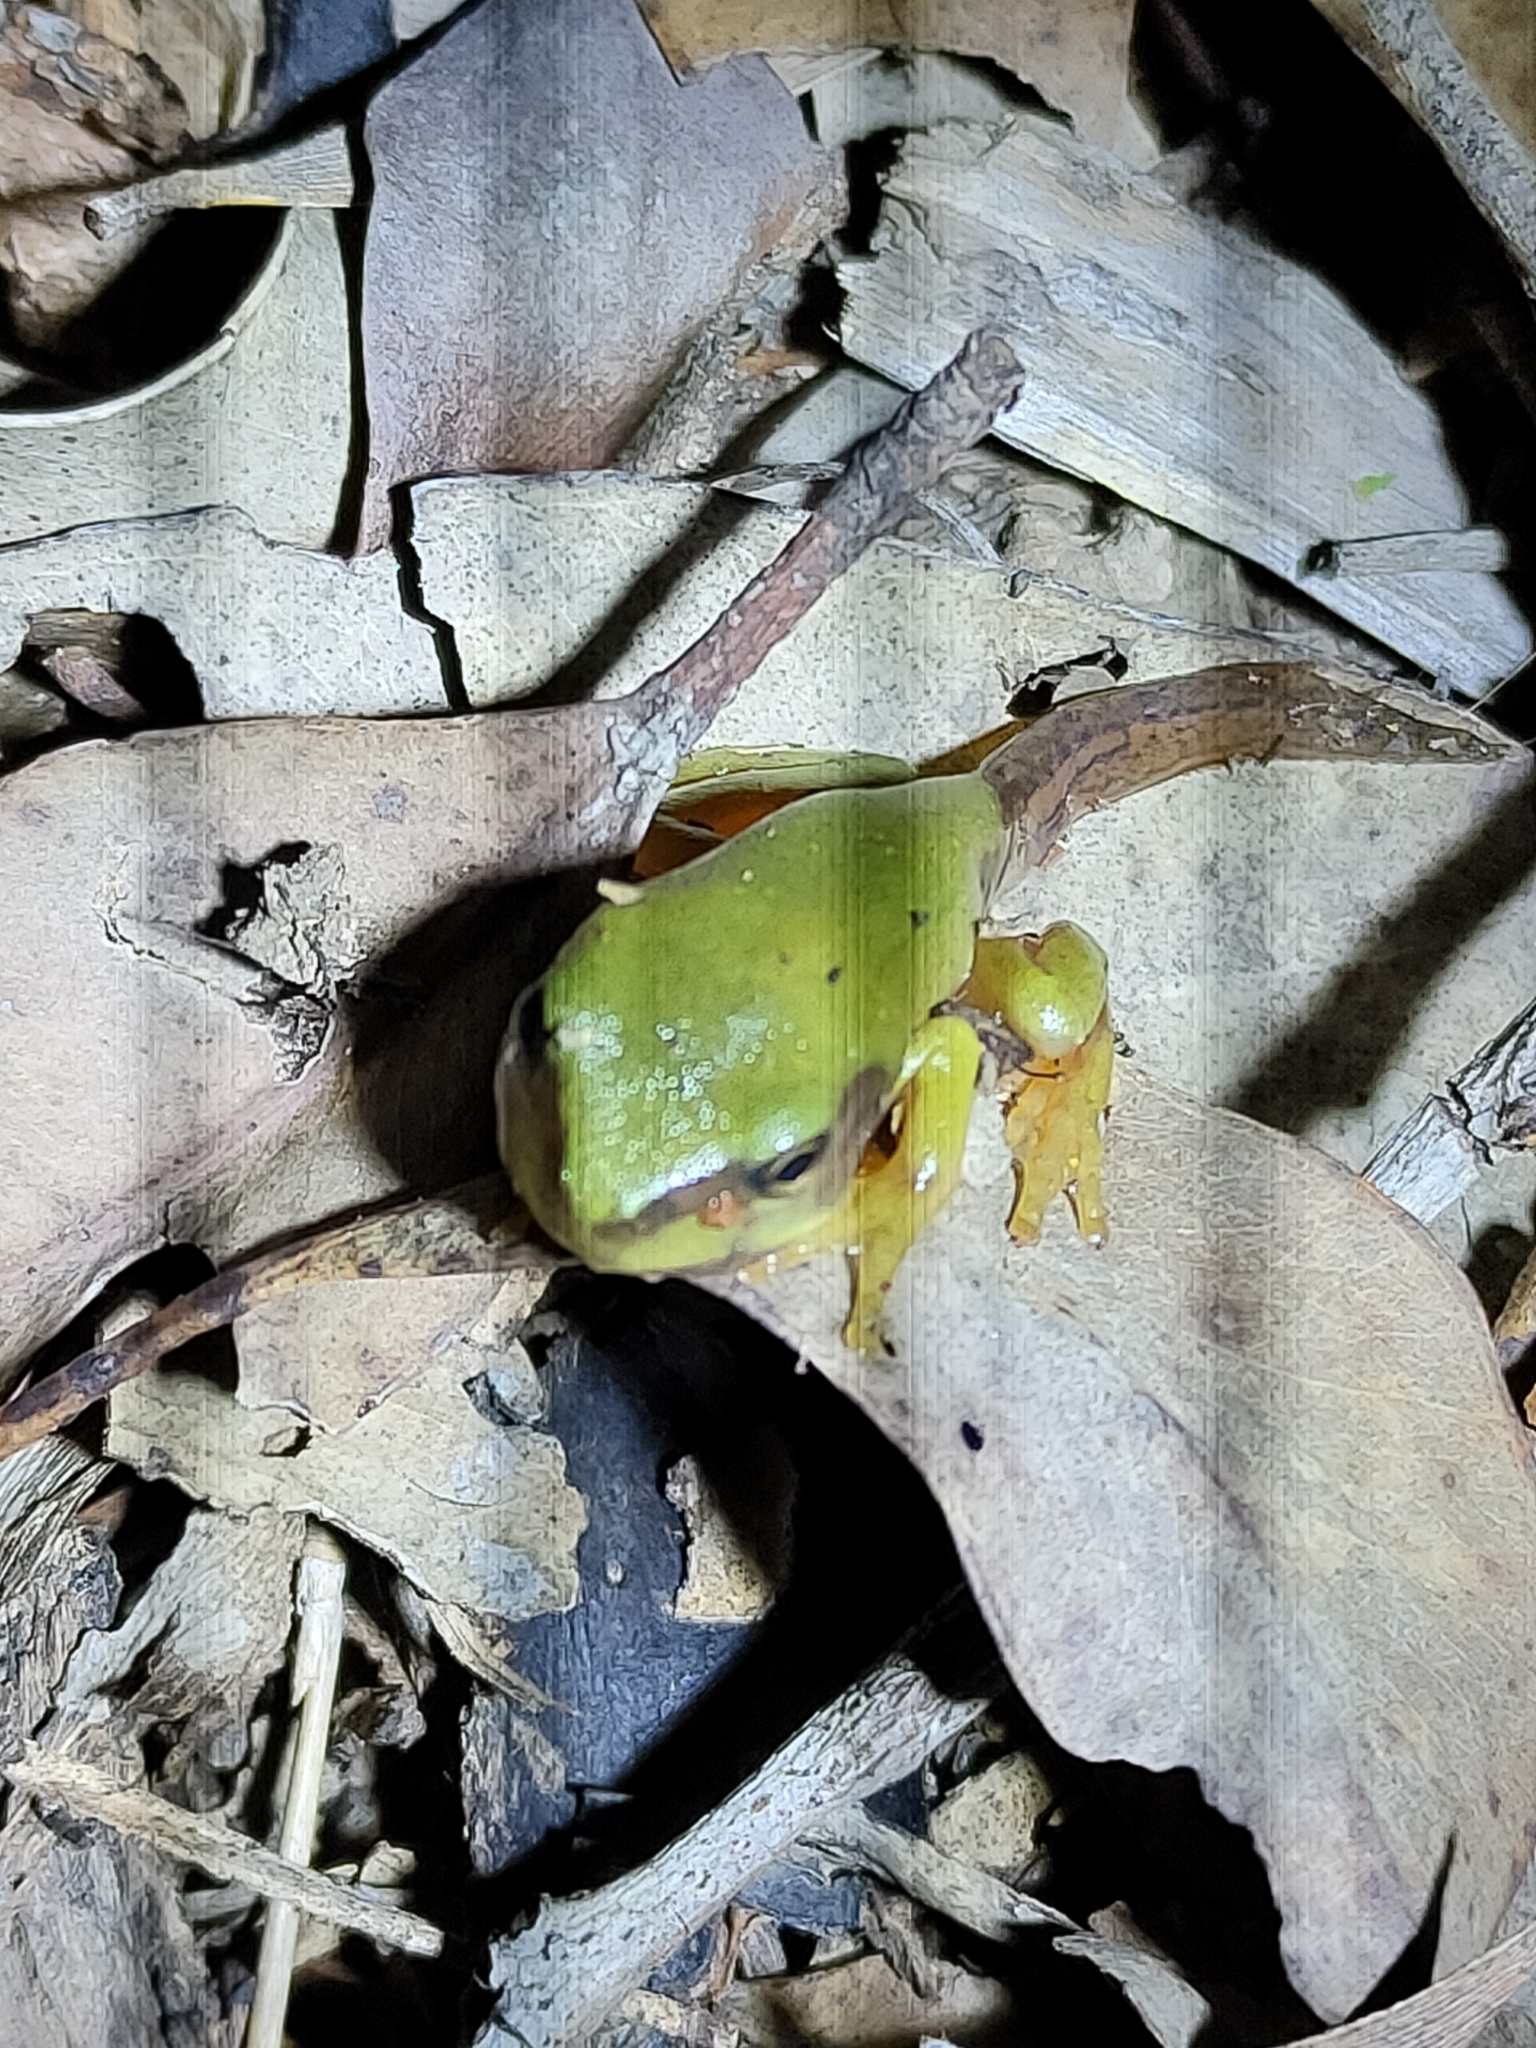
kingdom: Animalia
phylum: Chordata
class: Amphibia
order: Anura
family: Pelodryadidae
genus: Ranoidea
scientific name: Ranoidea caerulea
